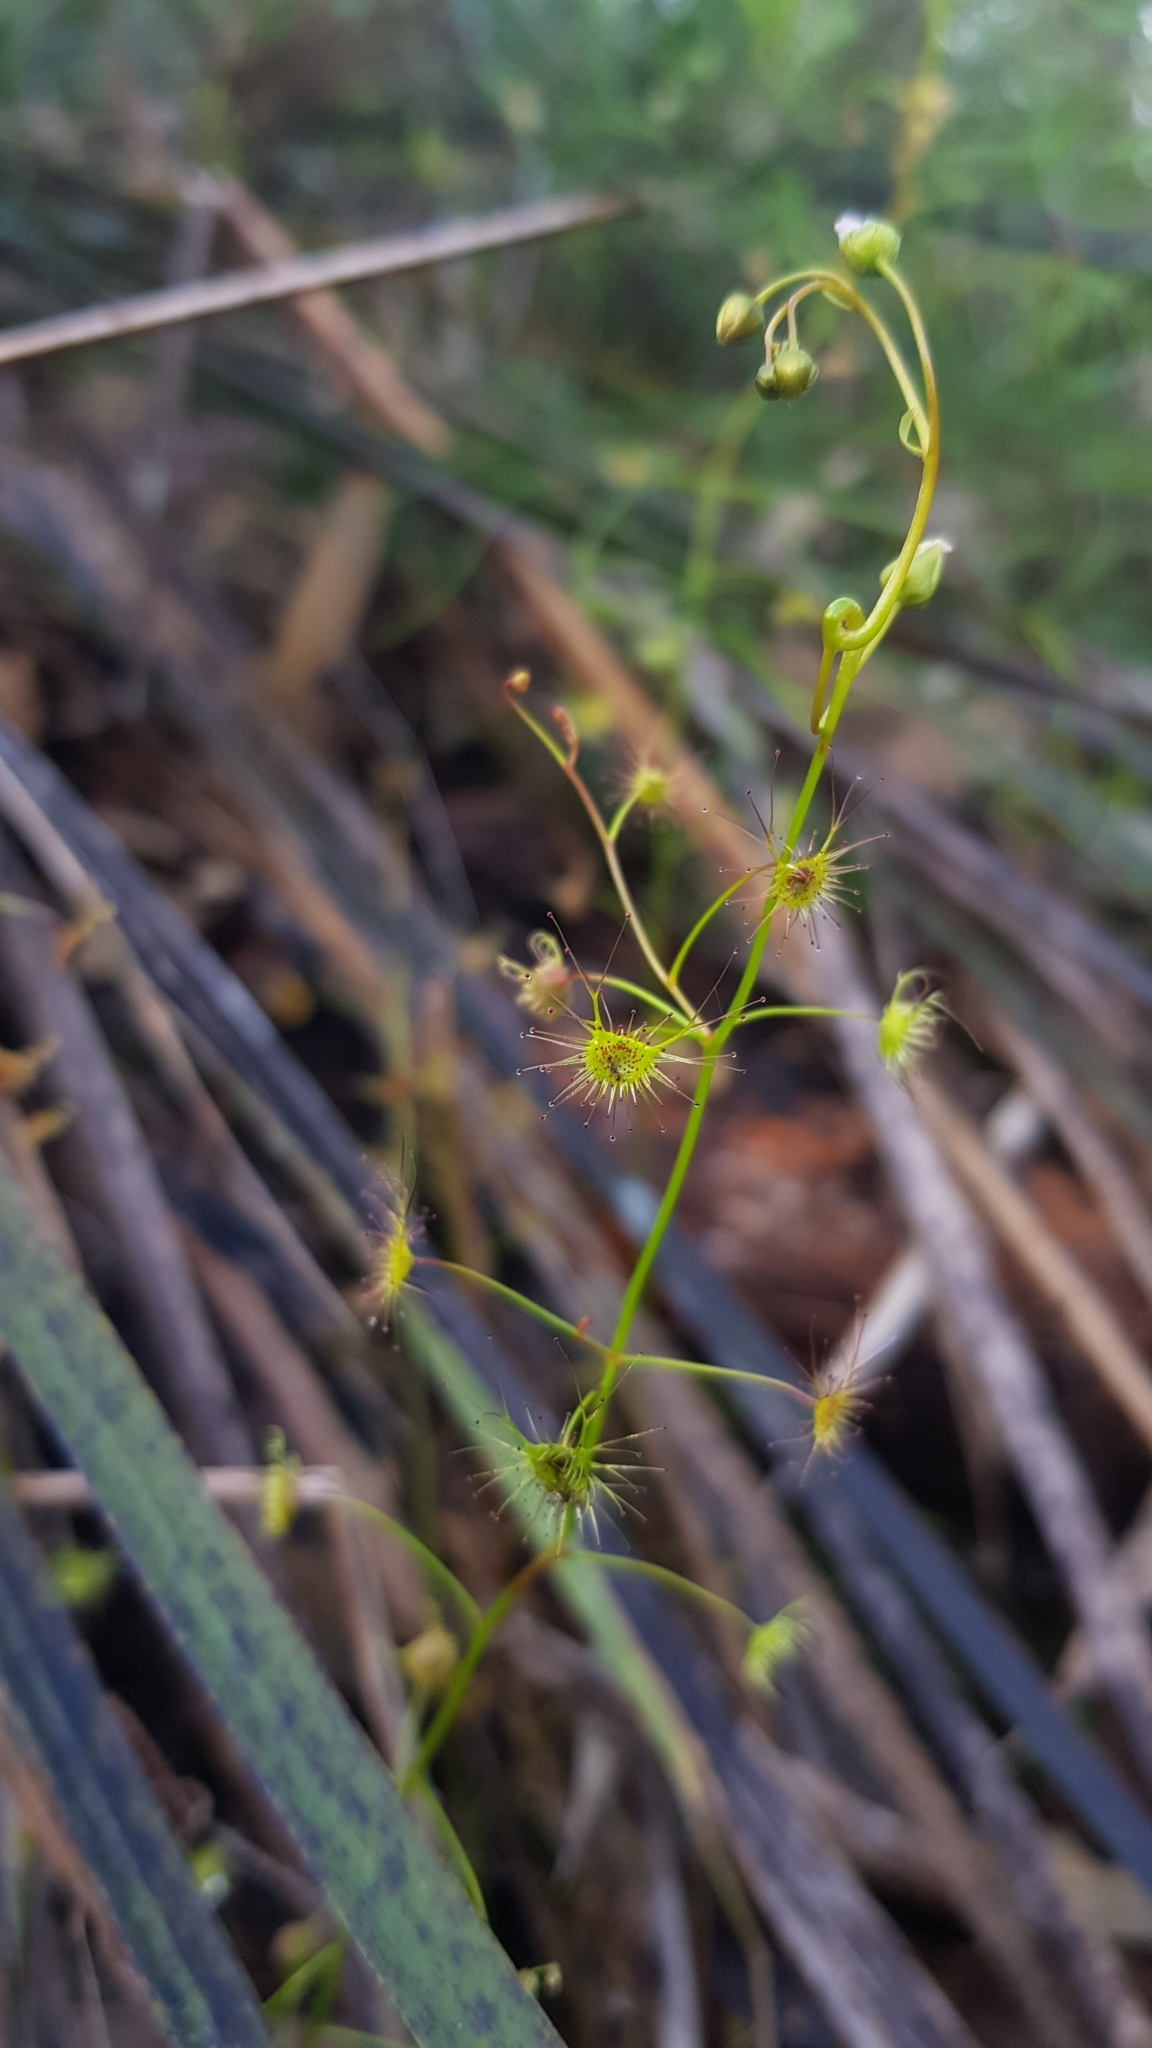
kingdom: Plantae
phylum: Tracheophyta
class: Magnoliopsida
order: Caryophyllales
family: Droseraceae
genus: Drosera
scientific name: Drosera peltata
